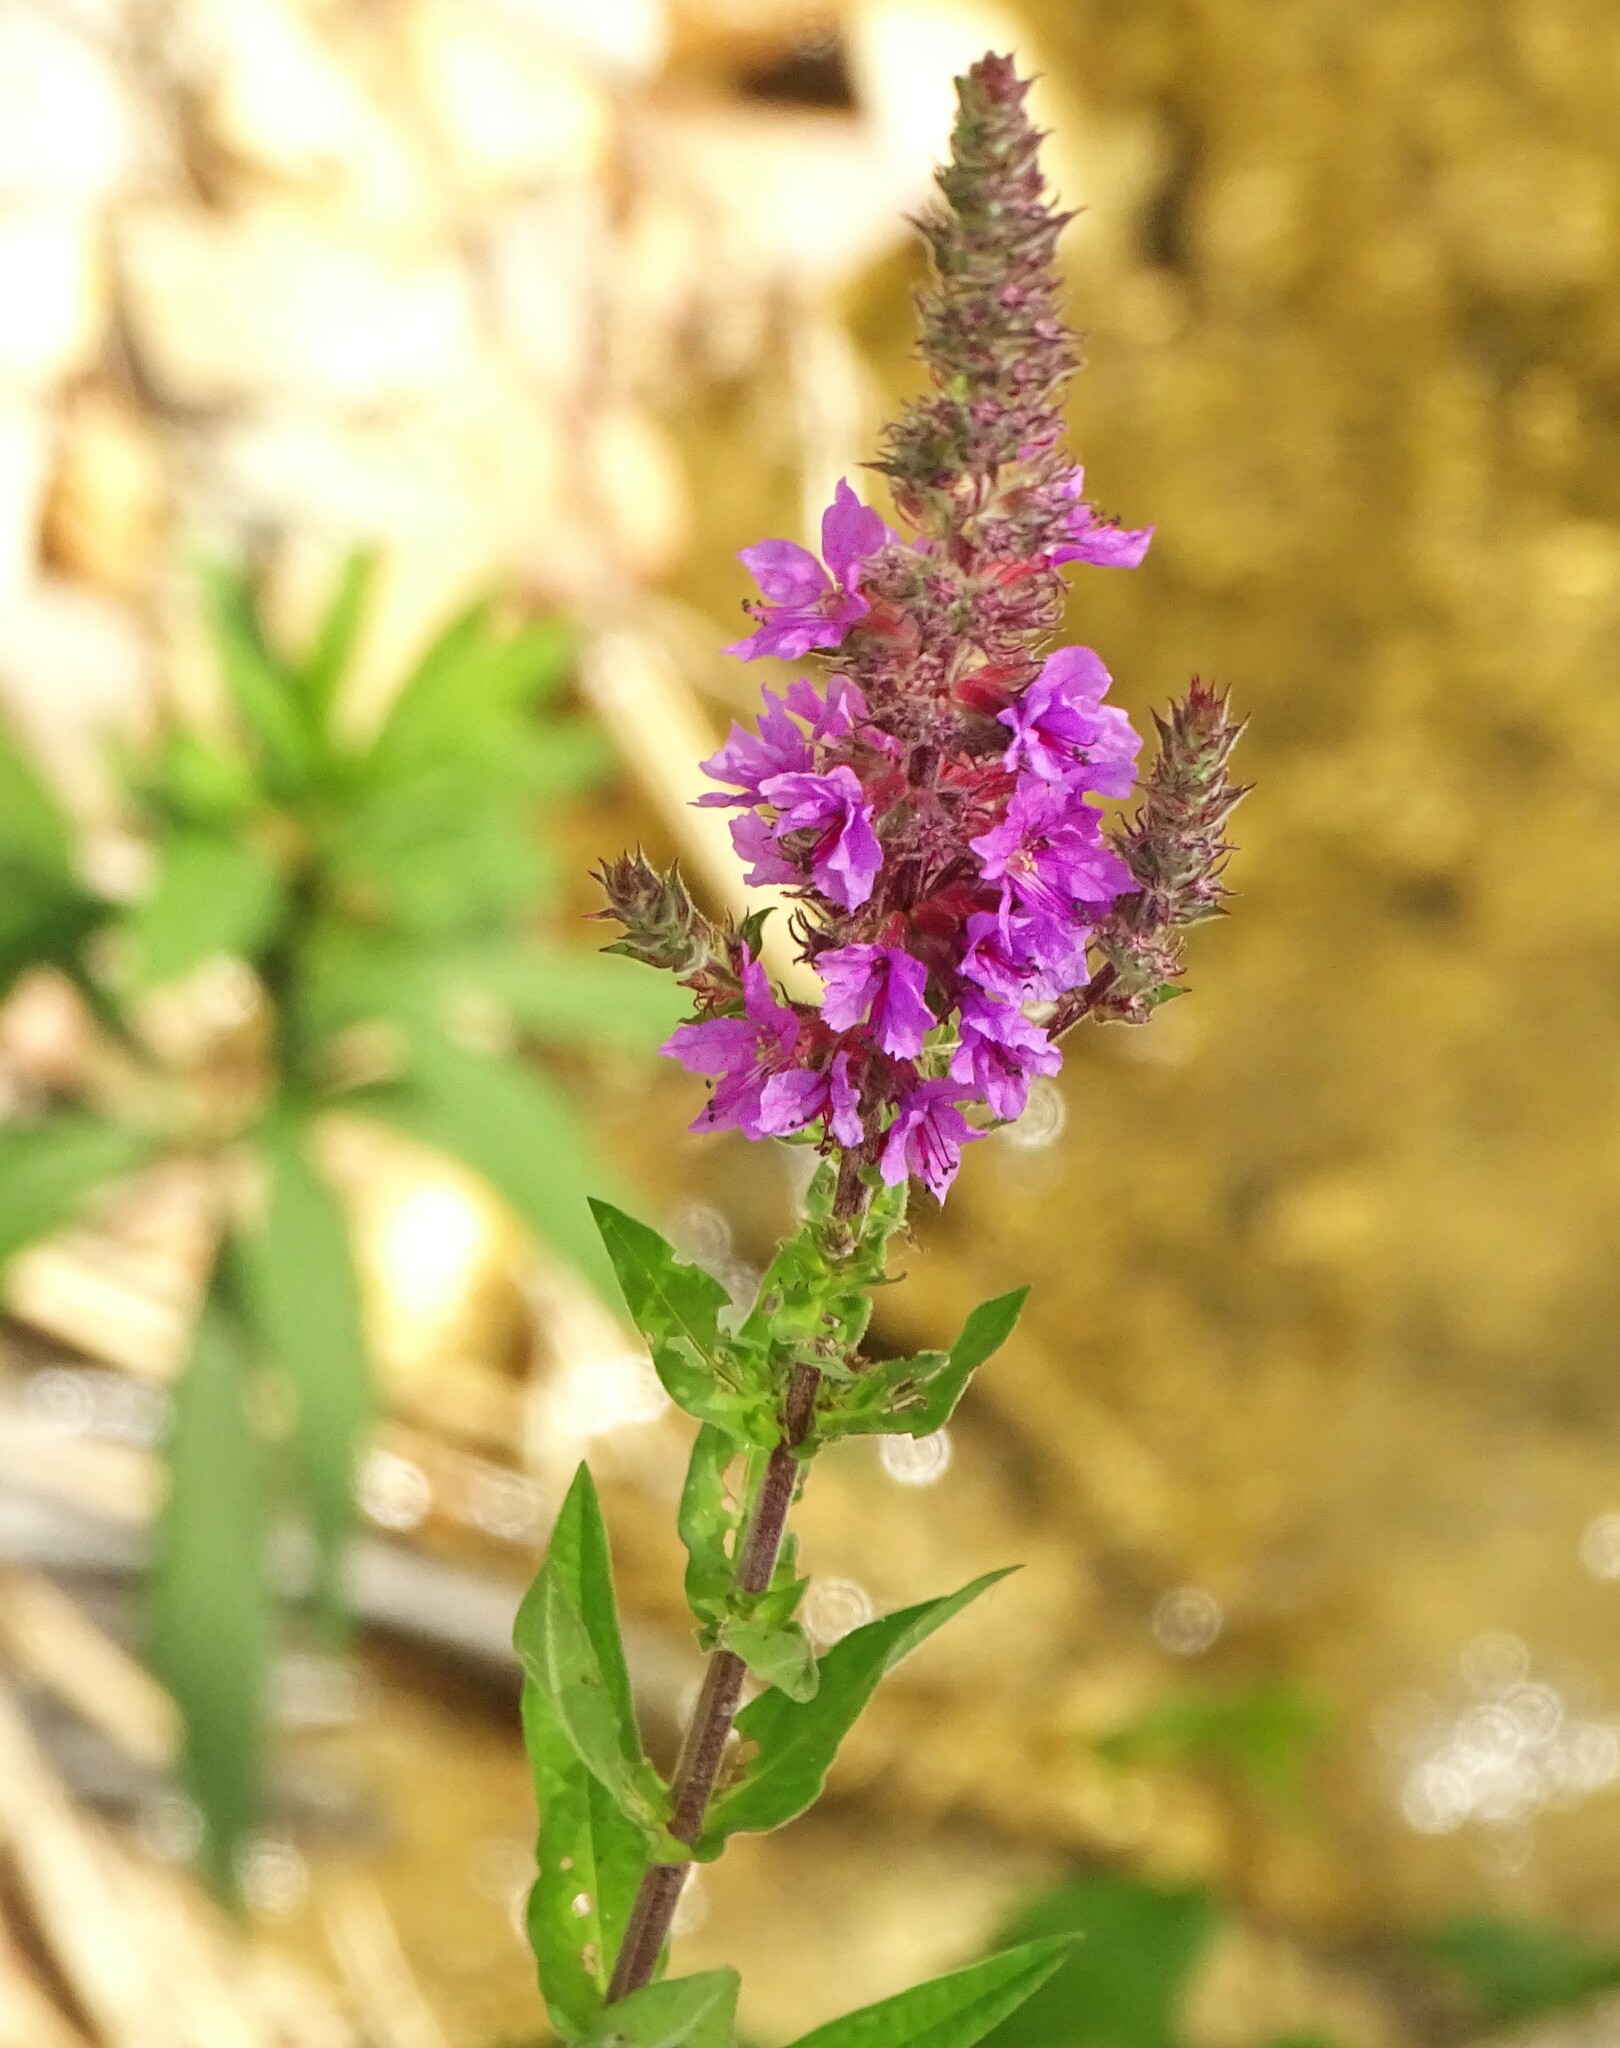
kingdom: Plantae
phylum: Tracheophyta
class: Magnoliopsida
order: Myrtales
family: Lythraceae
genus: Lythrum
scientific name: Lythrum salicaria
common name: Purple loosestrife
